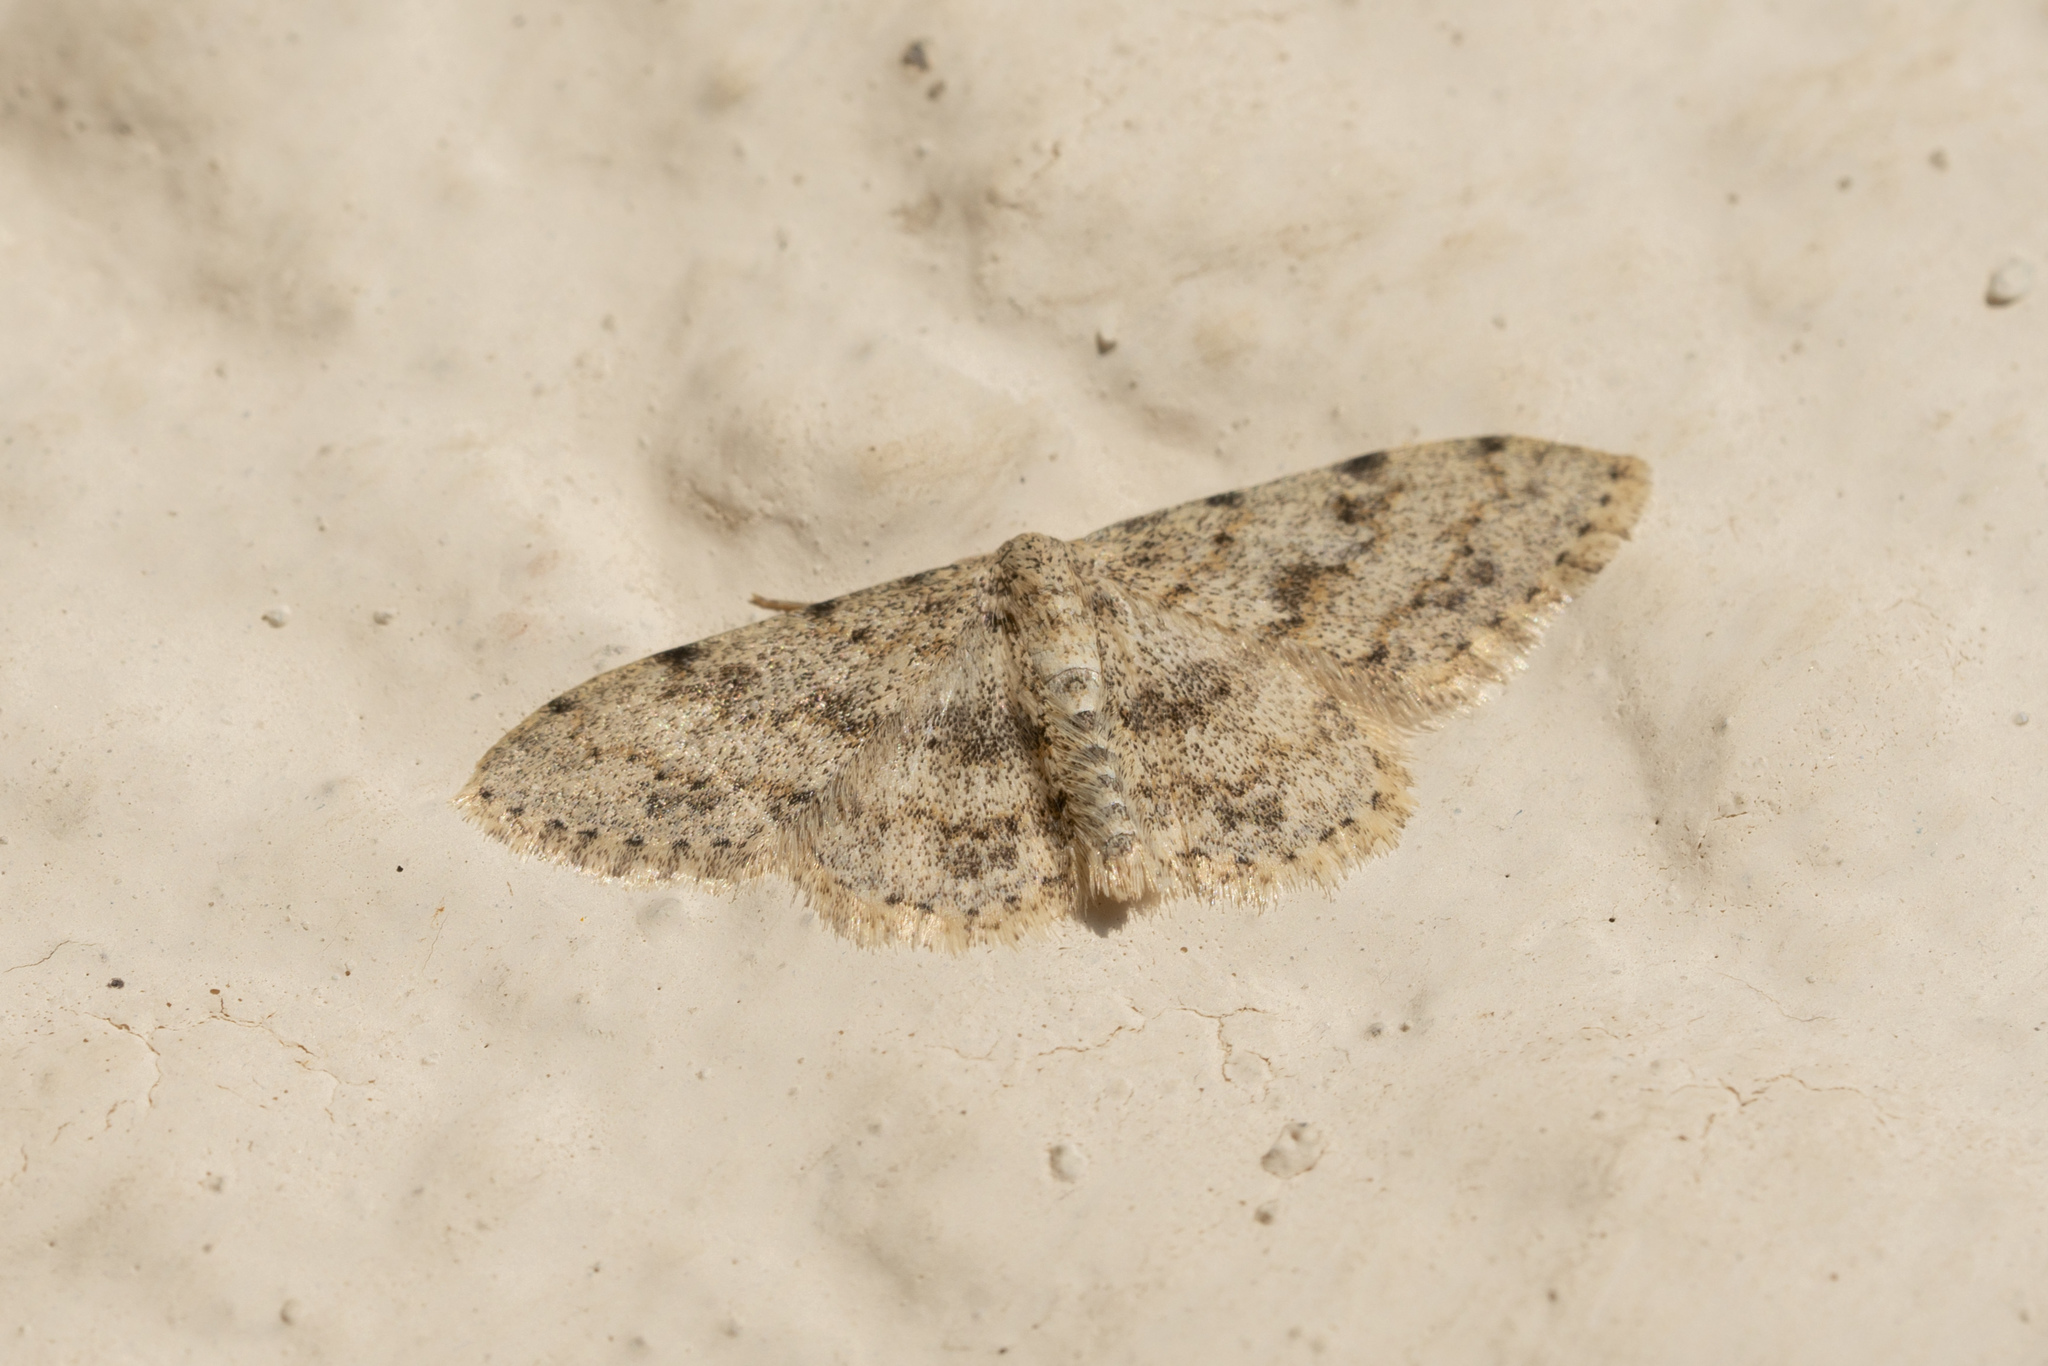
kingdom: Animalia
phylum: Arthropoda
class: Insecta
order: Lepidoptera
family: Geometridae
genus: Scopula
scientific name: Scopula luridata
